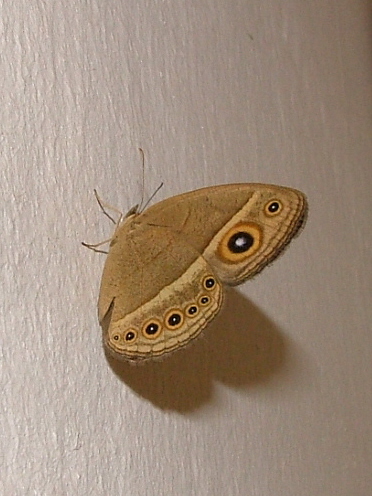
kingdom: Animalia
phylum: Arthropoda
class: Insecta
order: Lepidoptera
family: Nymphalidae
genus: Heteropsis
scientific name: Heteropsis perspicua
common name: Eyed bush brown
